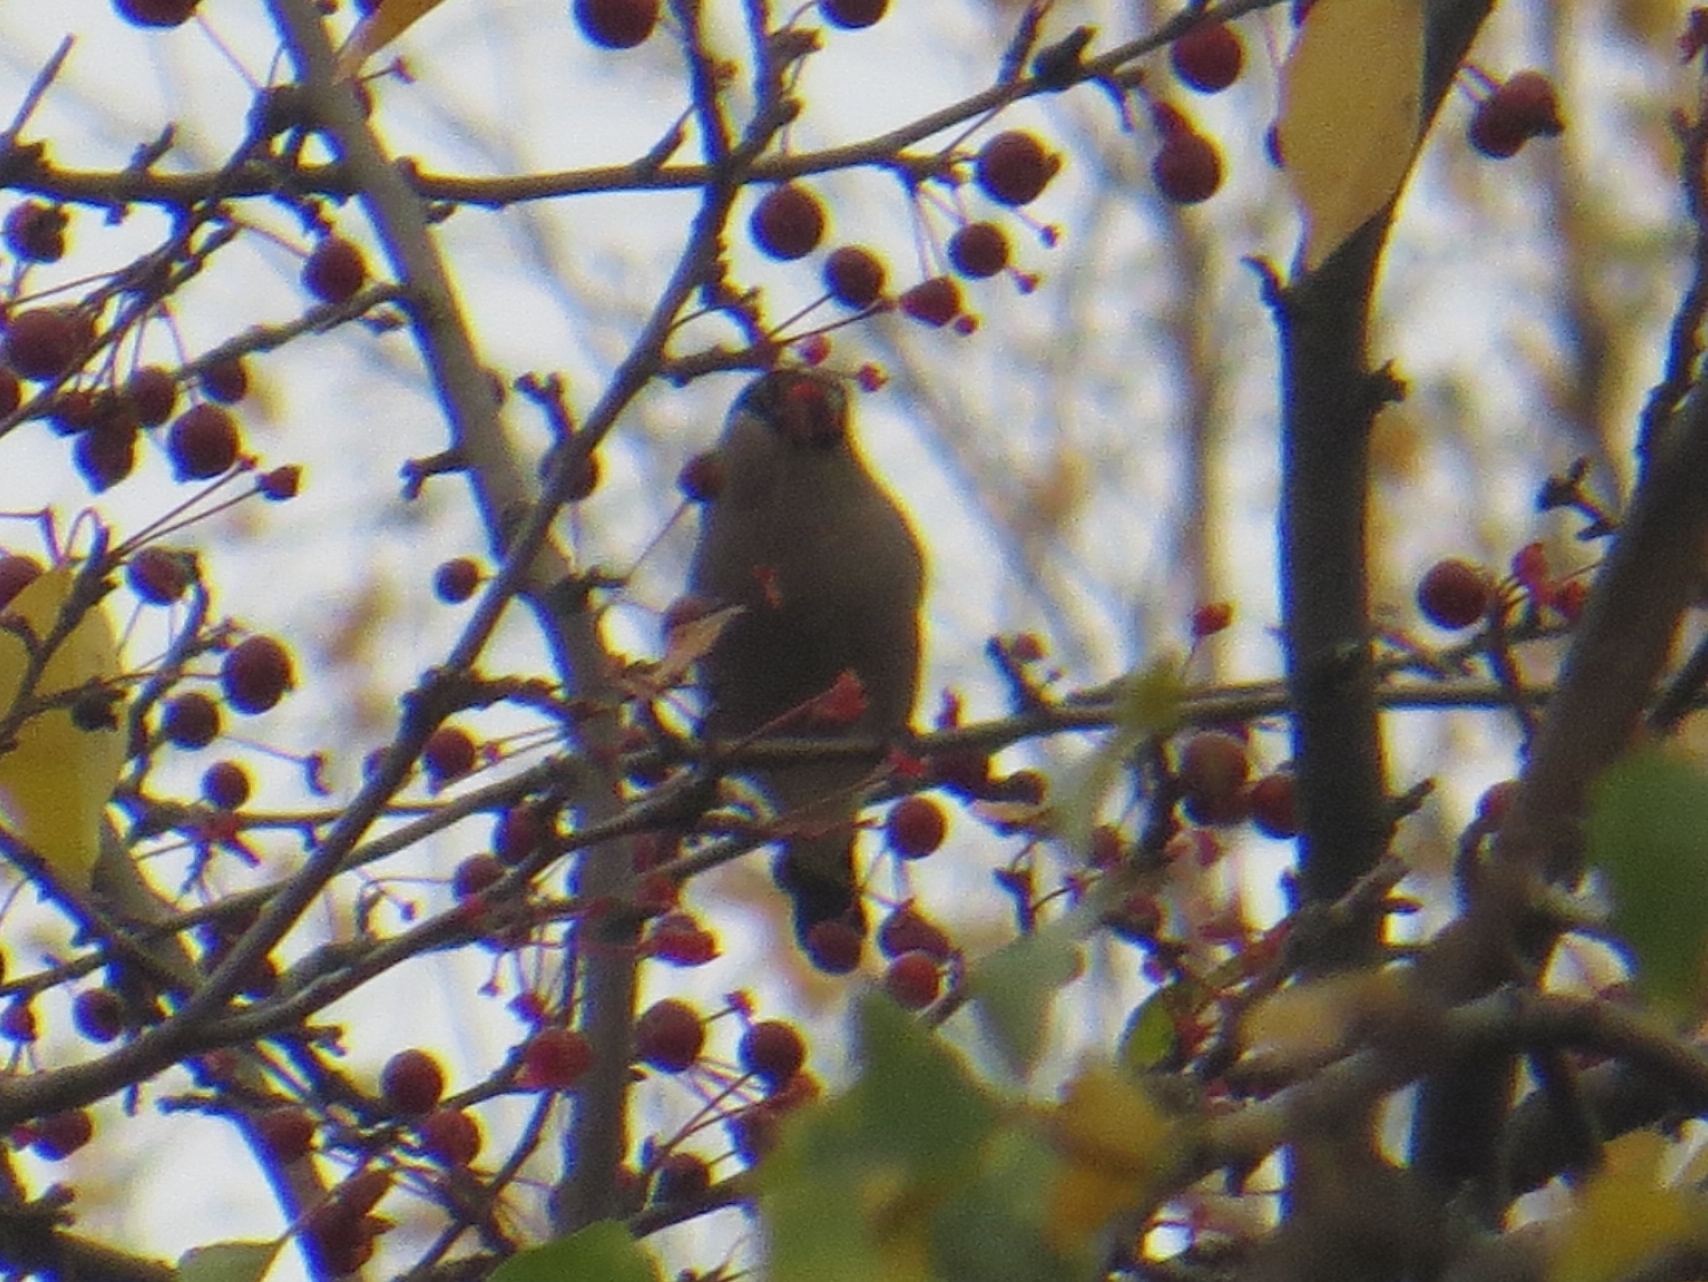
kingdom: Animalia
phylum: Chordata
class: Aves
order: Passeriformes
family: Fringillidae
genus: Pyrrhula
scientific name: Pyrrhula pyrrhula
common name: Eurasian bullfinch
